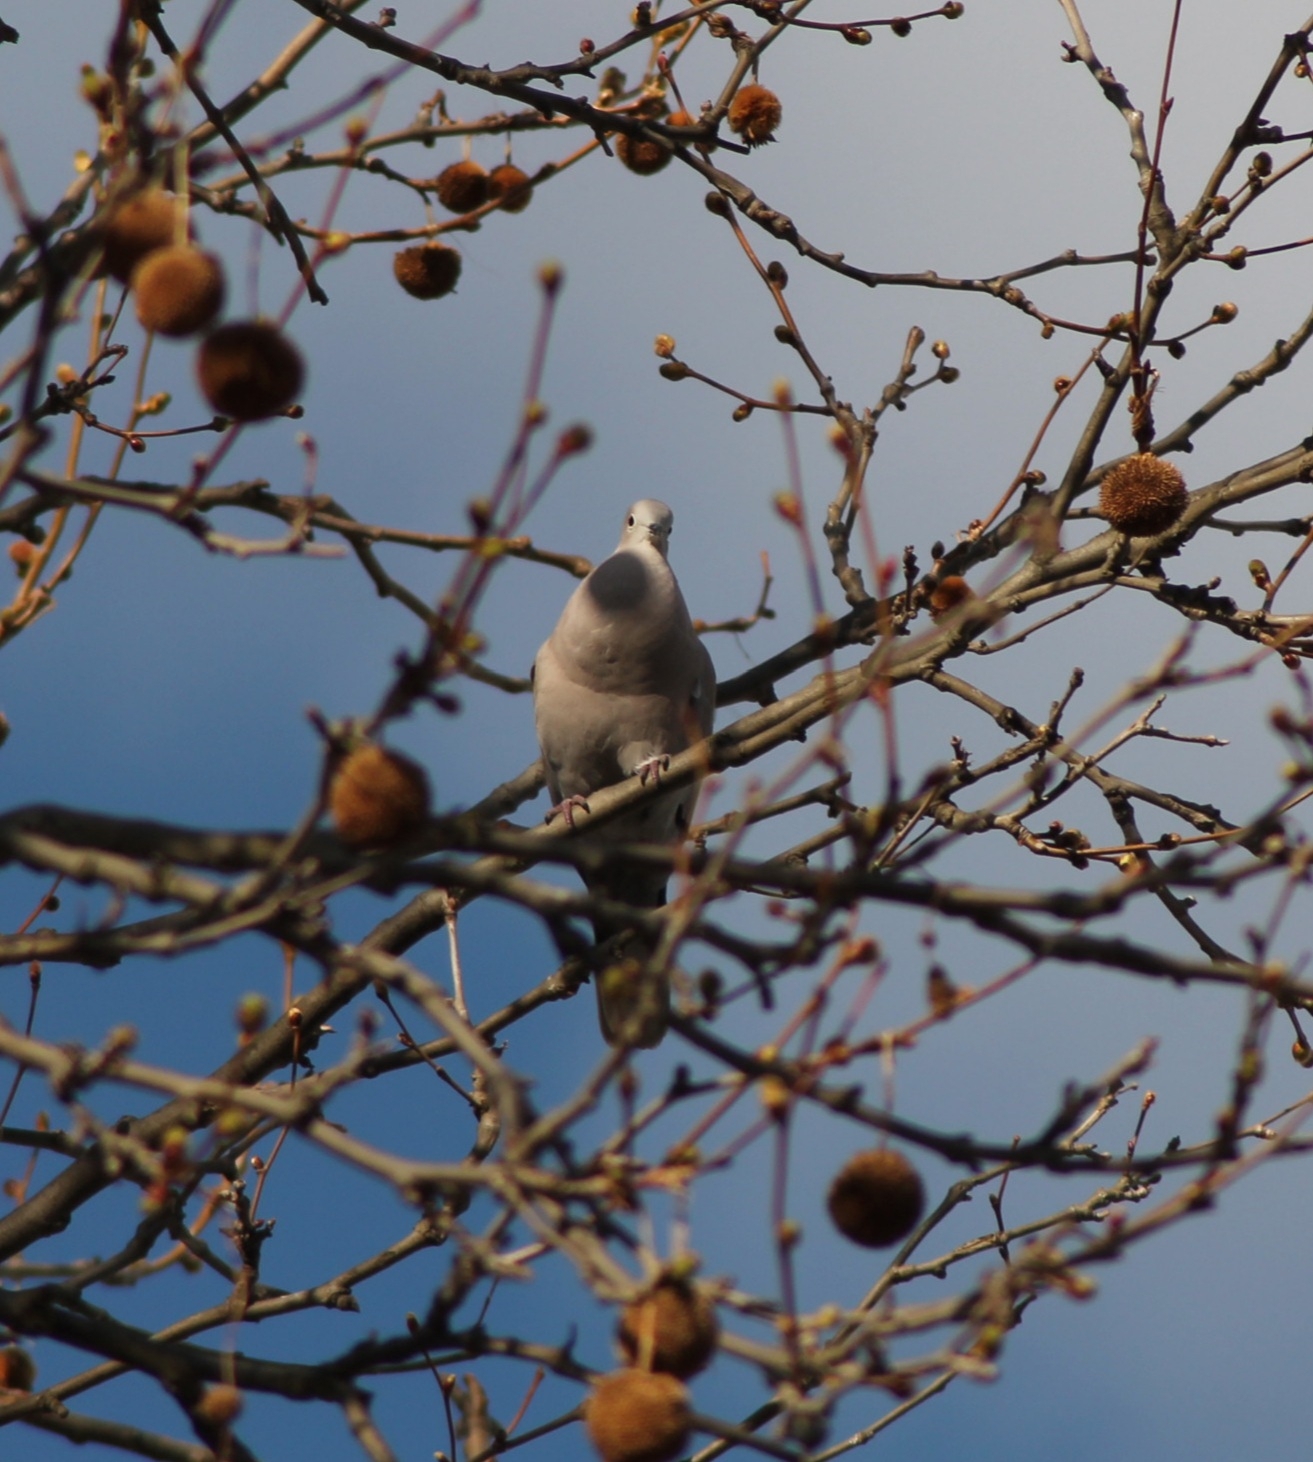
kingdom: Animalia
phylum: Chordata
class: Aves
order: Columbiformes
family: Columbidae
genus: Streptopelia
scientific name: Streptopelia decaocto
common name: Eurasian collared dove
